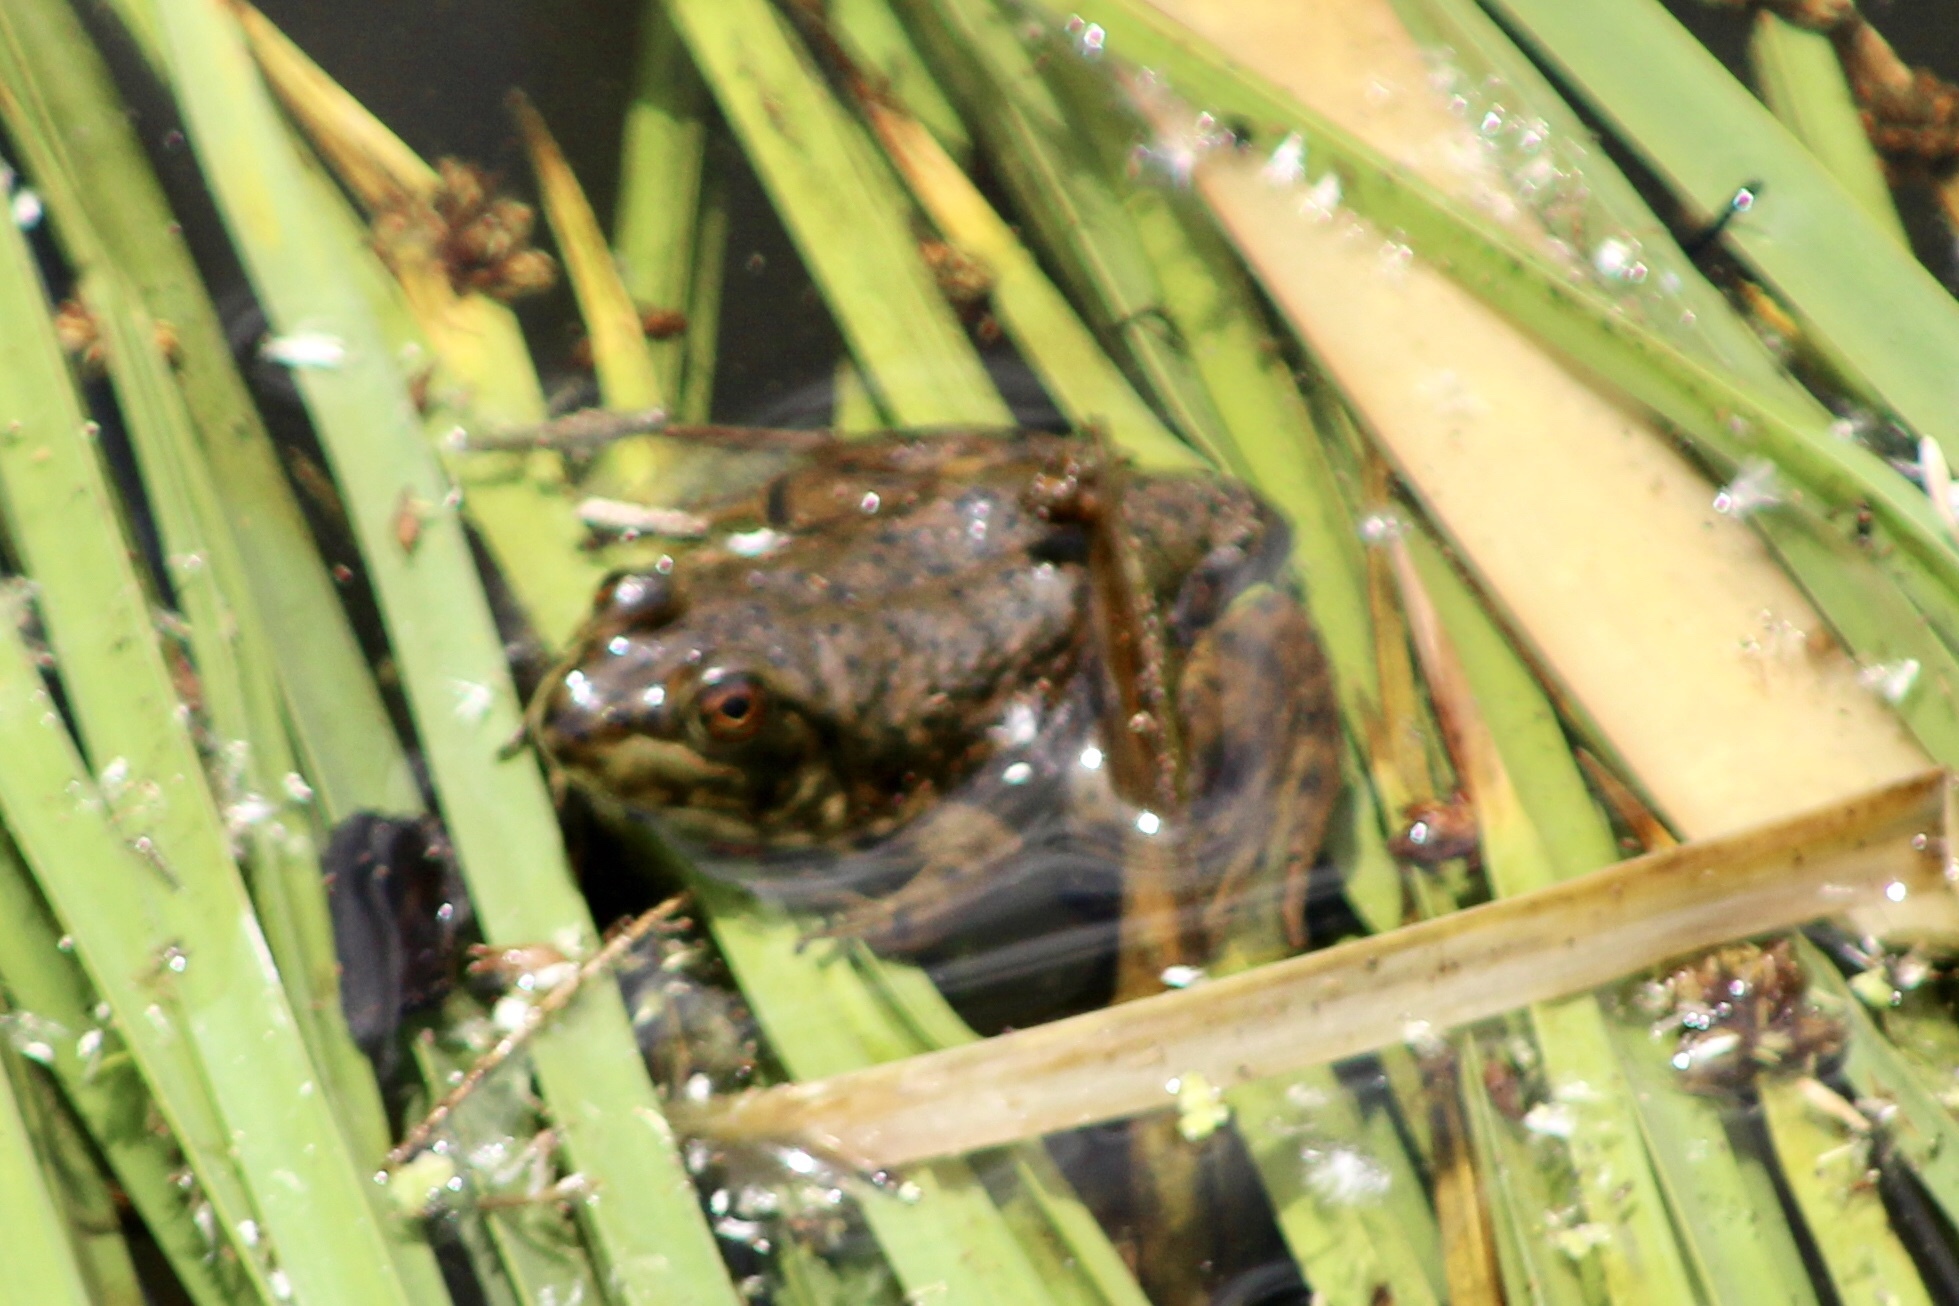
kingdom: Animalia
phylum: Chordata
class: Amphibia
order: Anura
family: Ranidae
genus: Lithobates
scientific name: Lithobates catesbeianus
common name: American bullfrog
